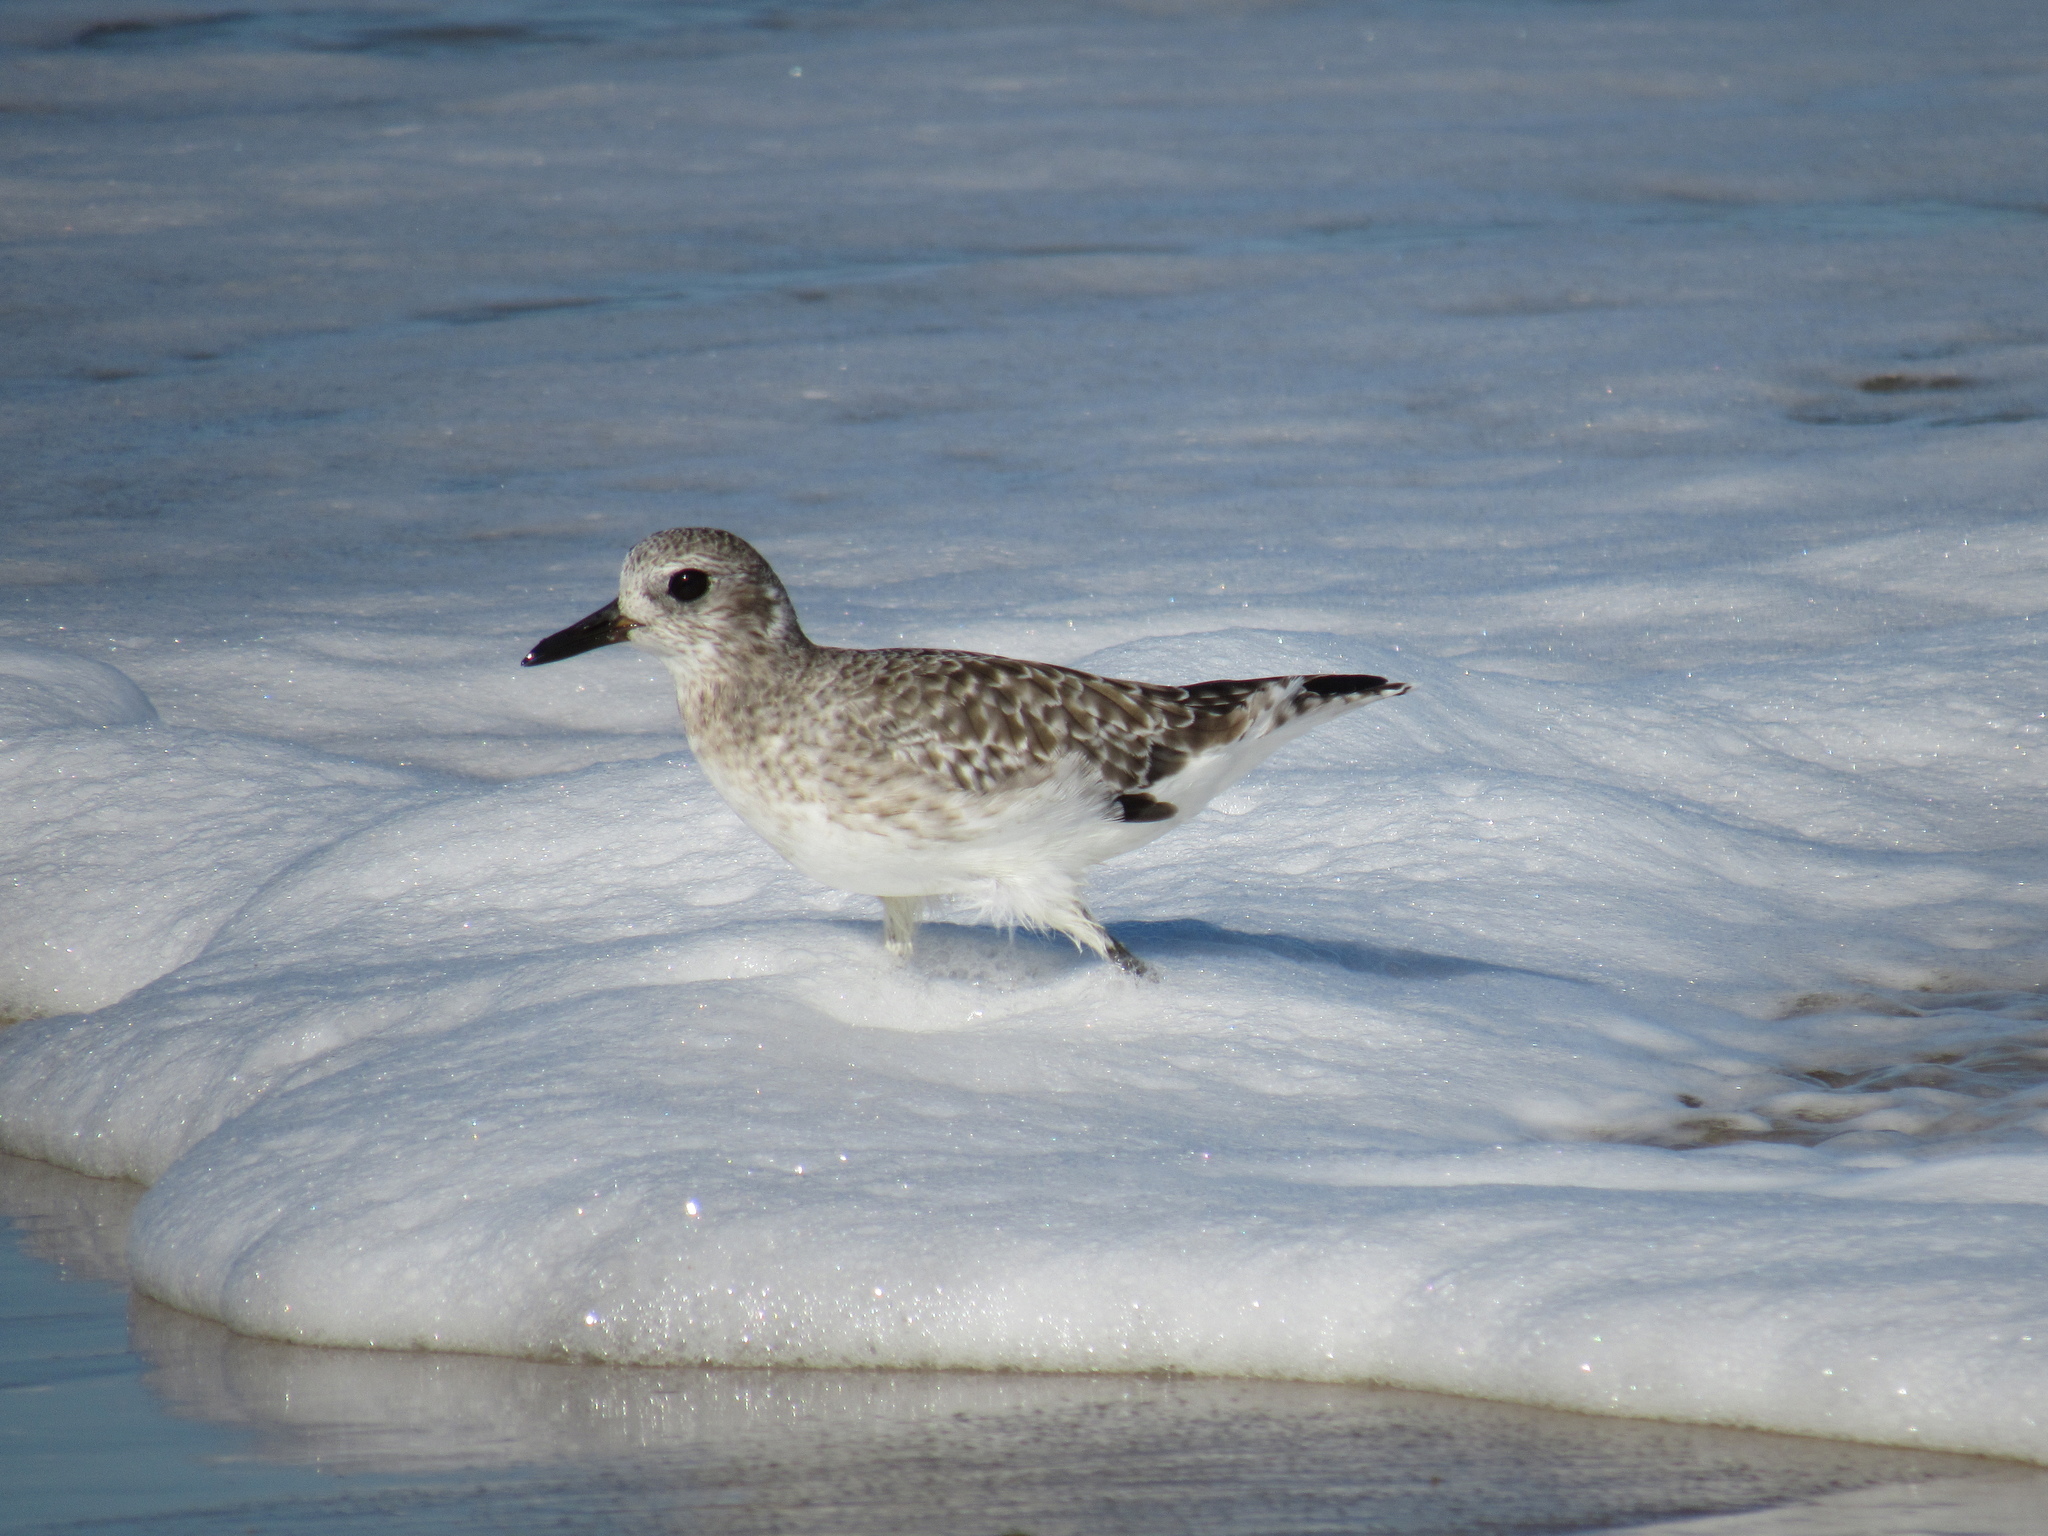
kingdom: Animalia
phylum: Chordata
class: Aves
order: Charadriiformes
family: Charadriidae
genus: Pluvialis
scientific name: Pluvialis squatarola
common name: Grey plover
